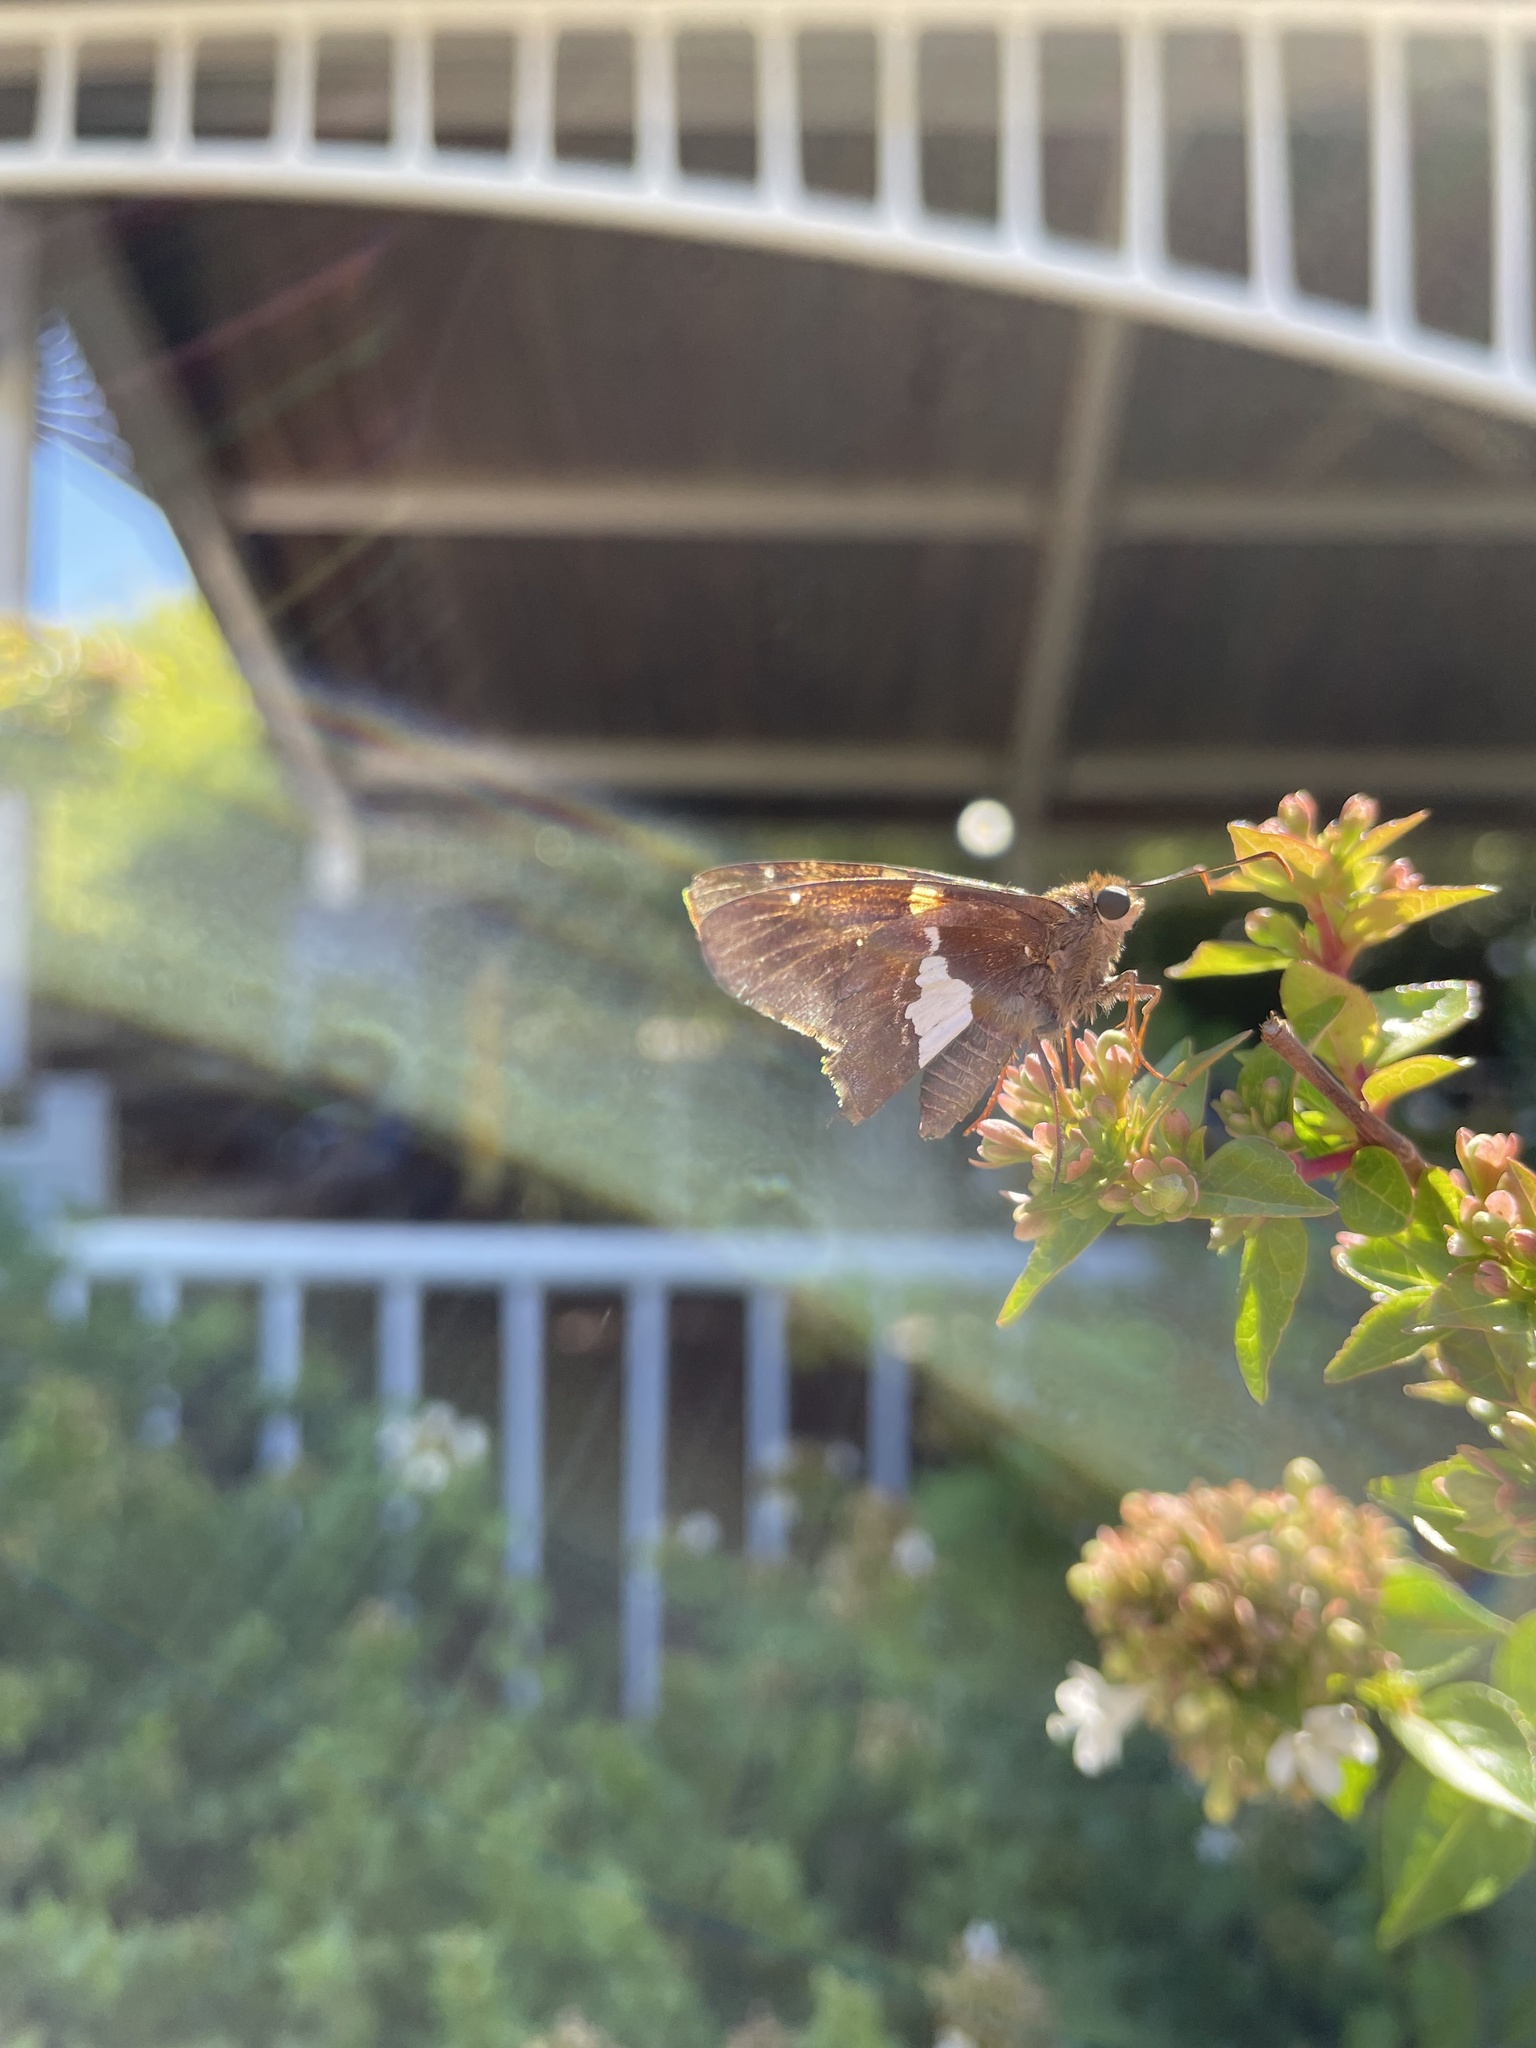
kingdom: Animalia
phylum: Arthropoda
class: Insecta
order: Lepidoptera
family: Hesperiidae
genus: Epargyreus
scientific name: Epargyreus clarus
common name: Silver-spotted skipper
